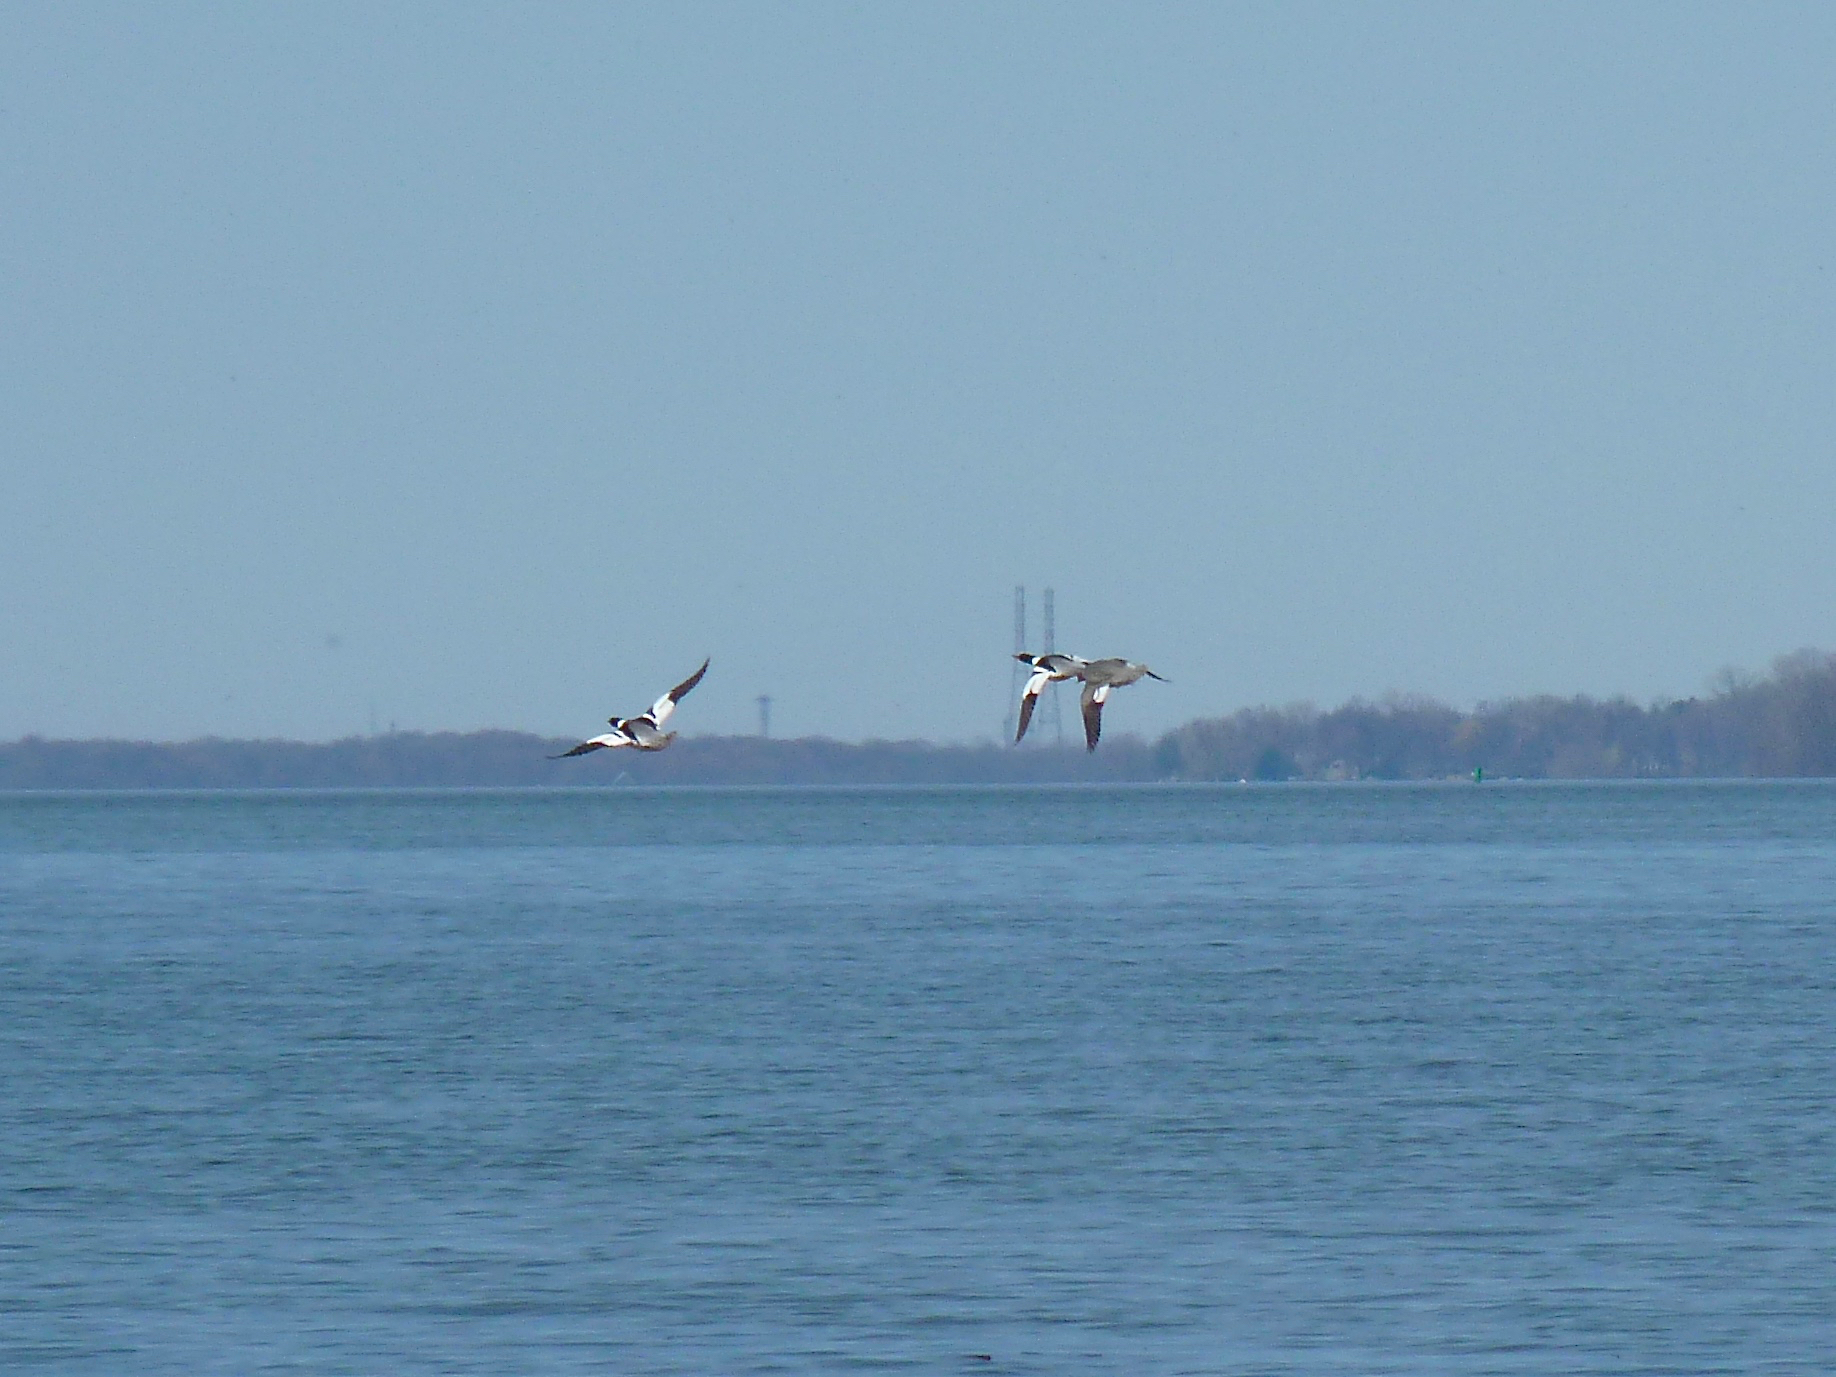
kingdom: Animalia
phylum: Chordata
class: Aves
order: Anseriformes
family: Anatidae
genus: Mergus
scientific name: Mergus merganser
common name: Common merganser
